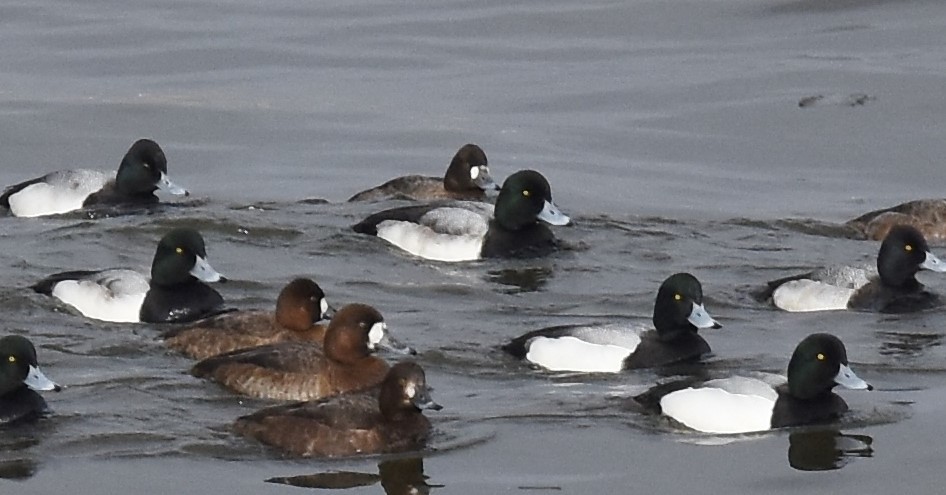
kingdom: Animalia
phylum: Chordata
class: Aves
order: Anseriformes
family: Anatidae
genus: Aythya
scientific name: Aythya marila
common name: Greater scaup
